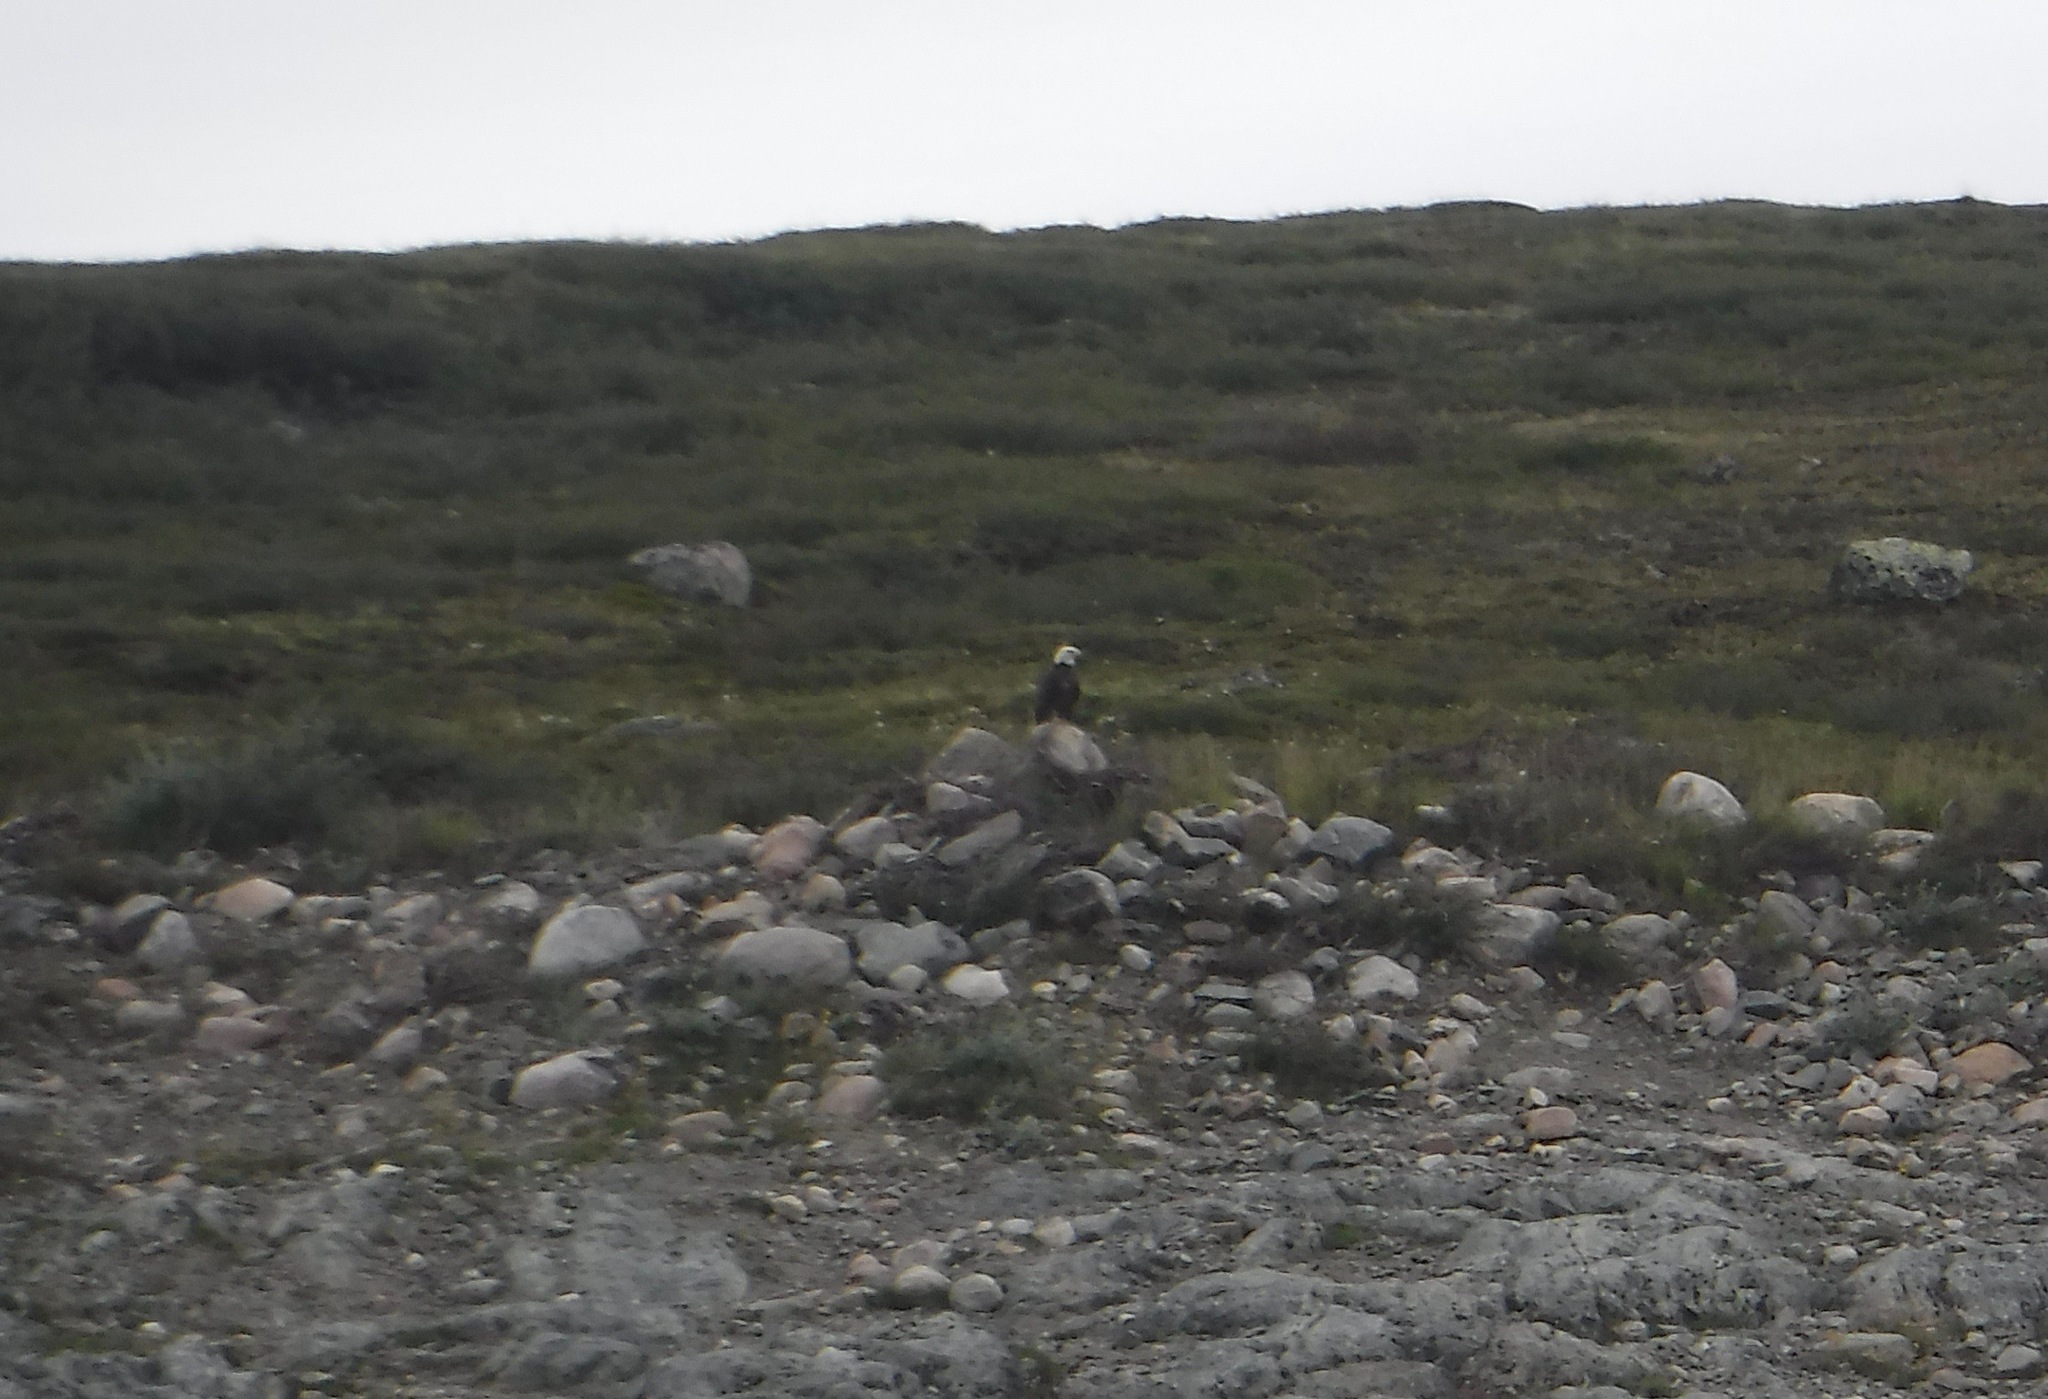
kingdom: Animalia
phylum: Chordata
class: Aves
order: Accipitriformes
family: Accipitridae
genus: Haliaeetus
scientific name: Haliaeetus leucocephalus
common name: Bald eagle
